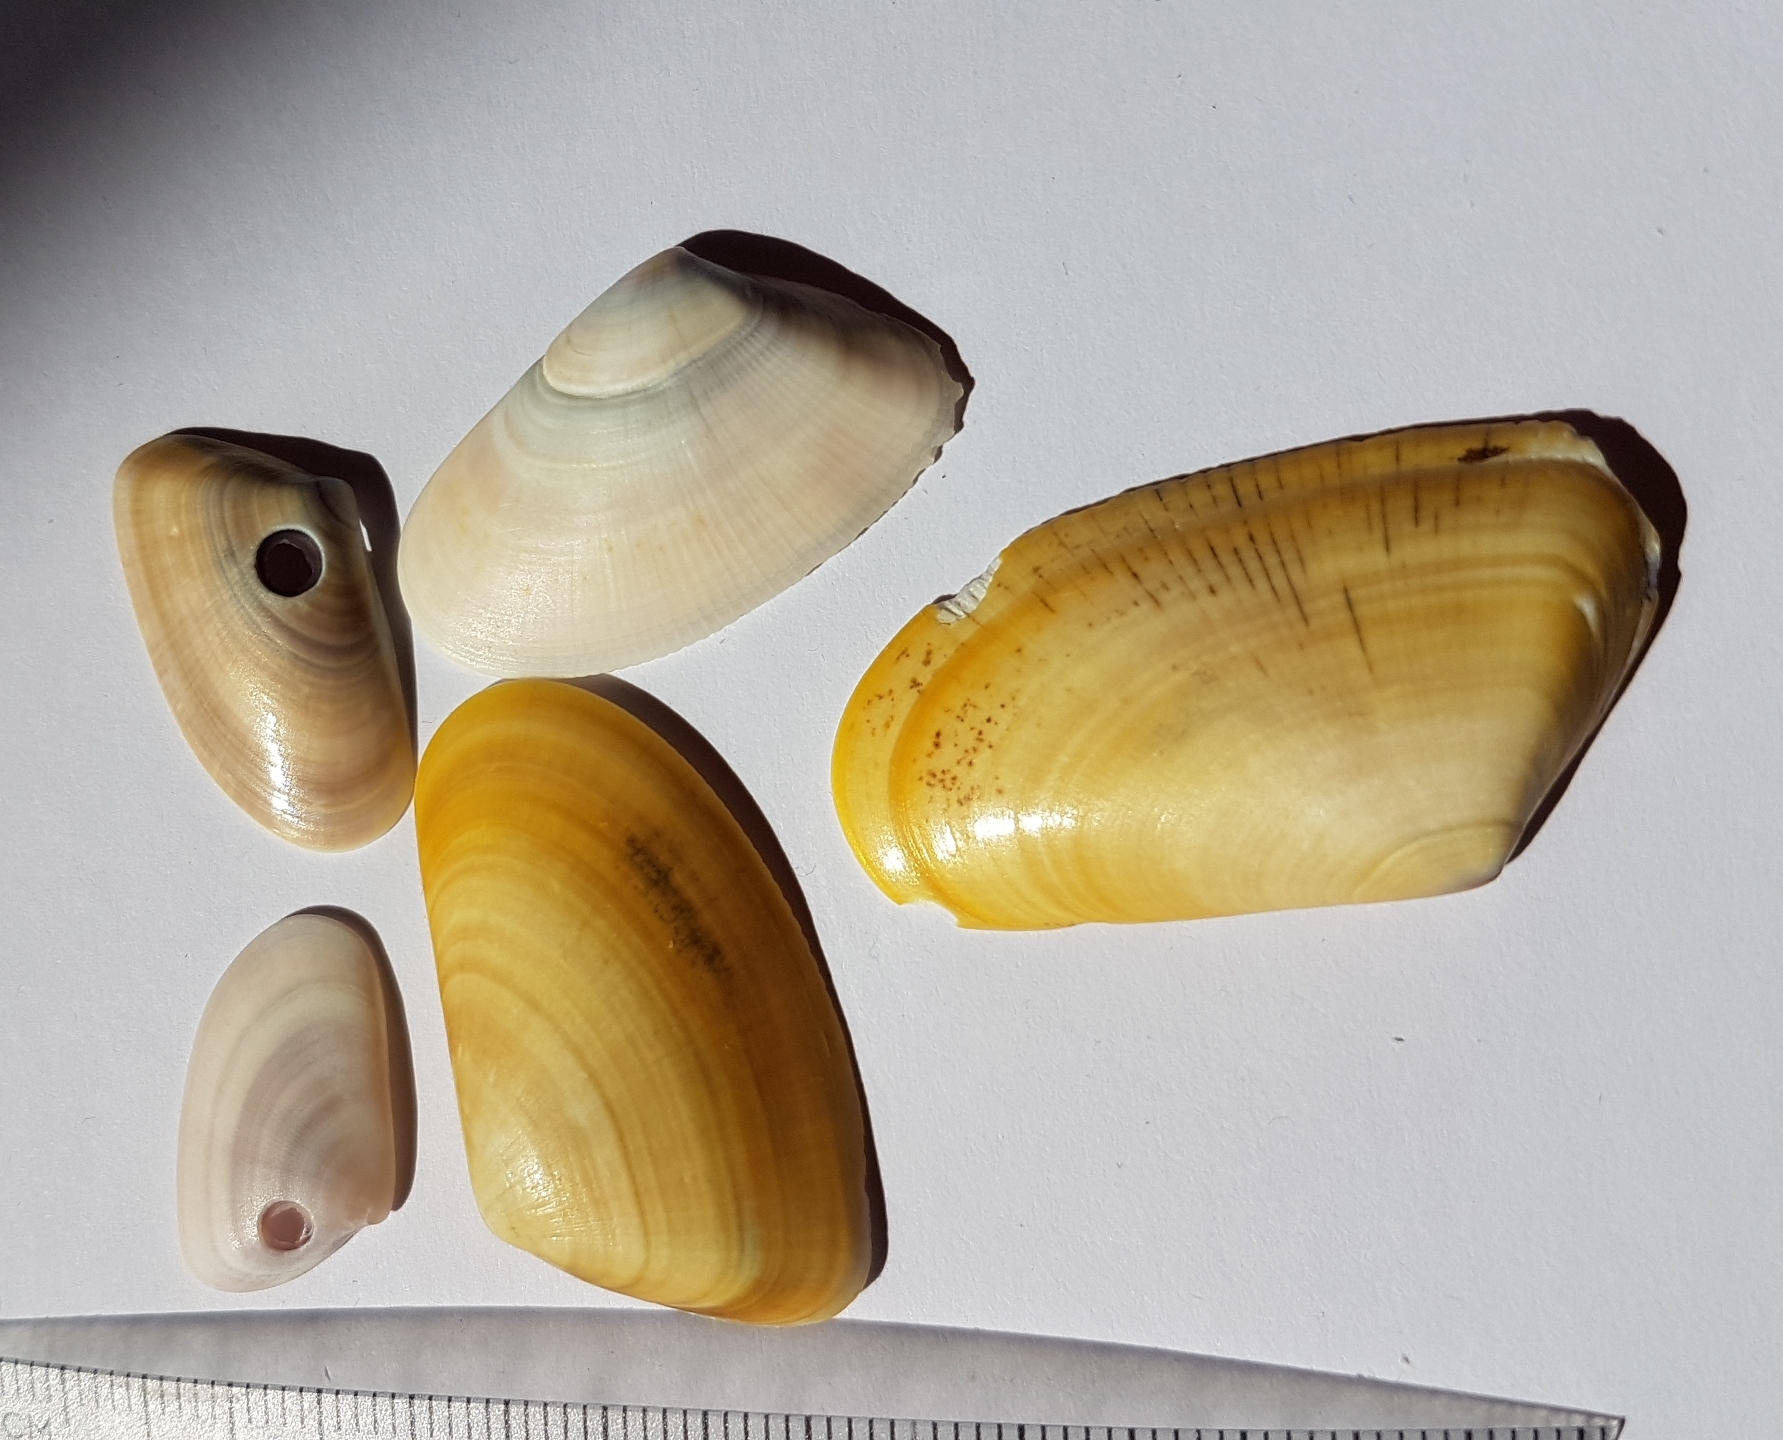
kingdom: Animalia
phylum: Mollusca
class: Bivalvia
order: Cardiida
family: Donacidae
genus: Donax
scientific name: Donax trunculus
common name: Truncate donax
